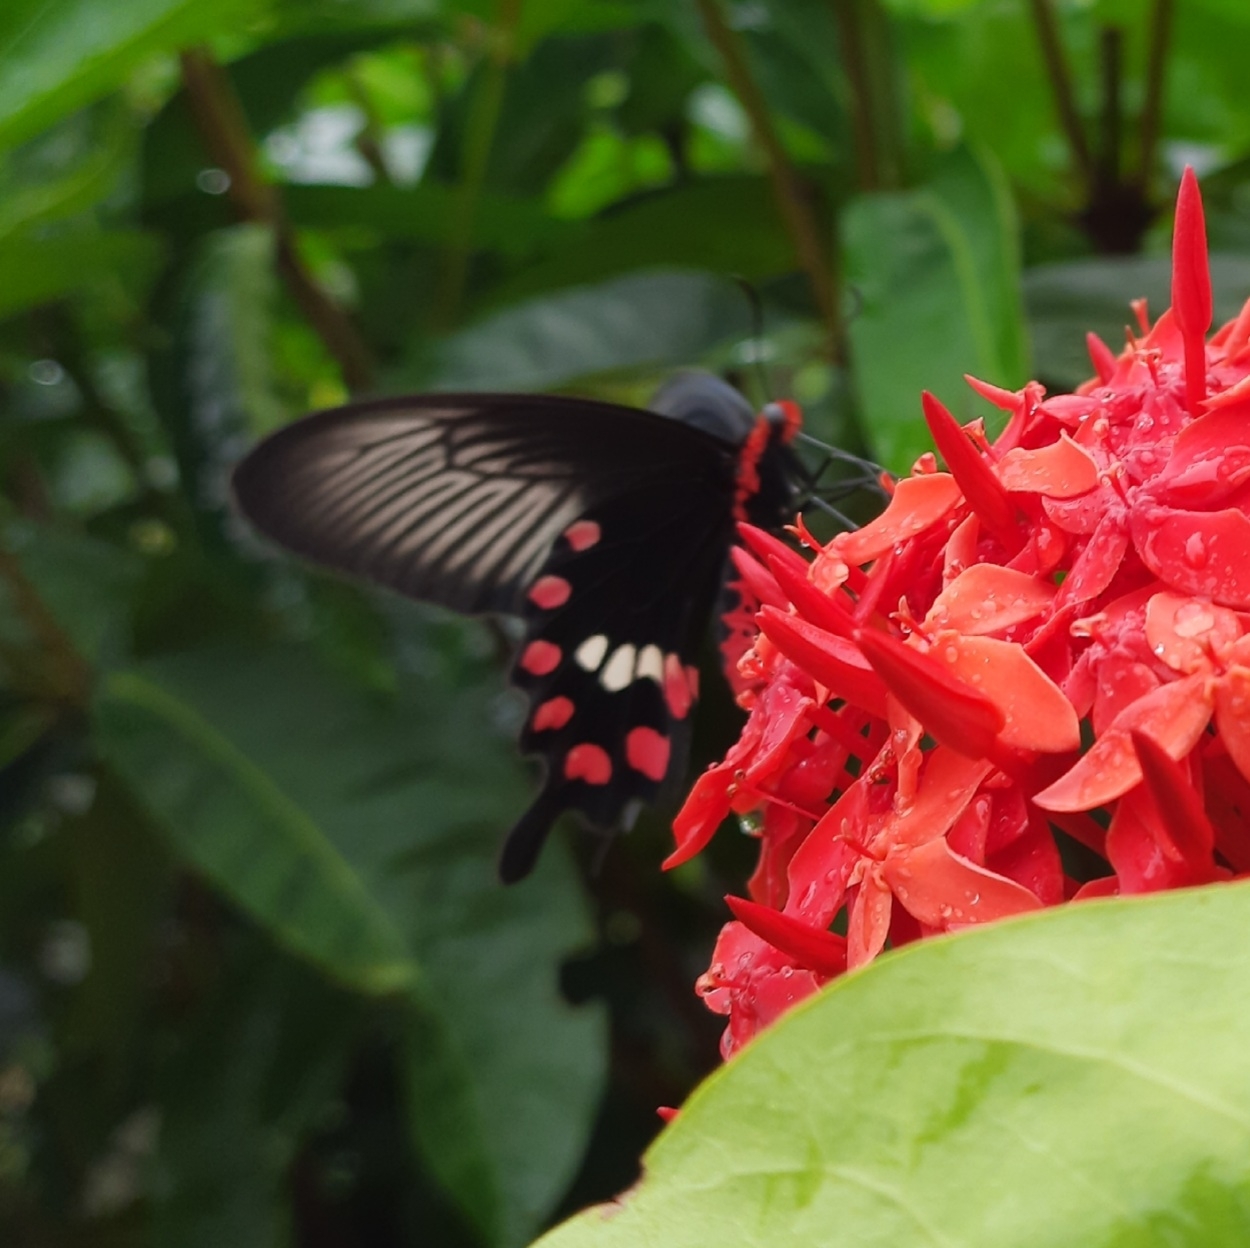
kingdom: Animalia
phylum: Arthropoda
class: Insecta
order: Lepidoptera
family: Papilionidae
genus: Pachliopta
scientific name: Pachliopta aristolochiae
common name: Common rose
